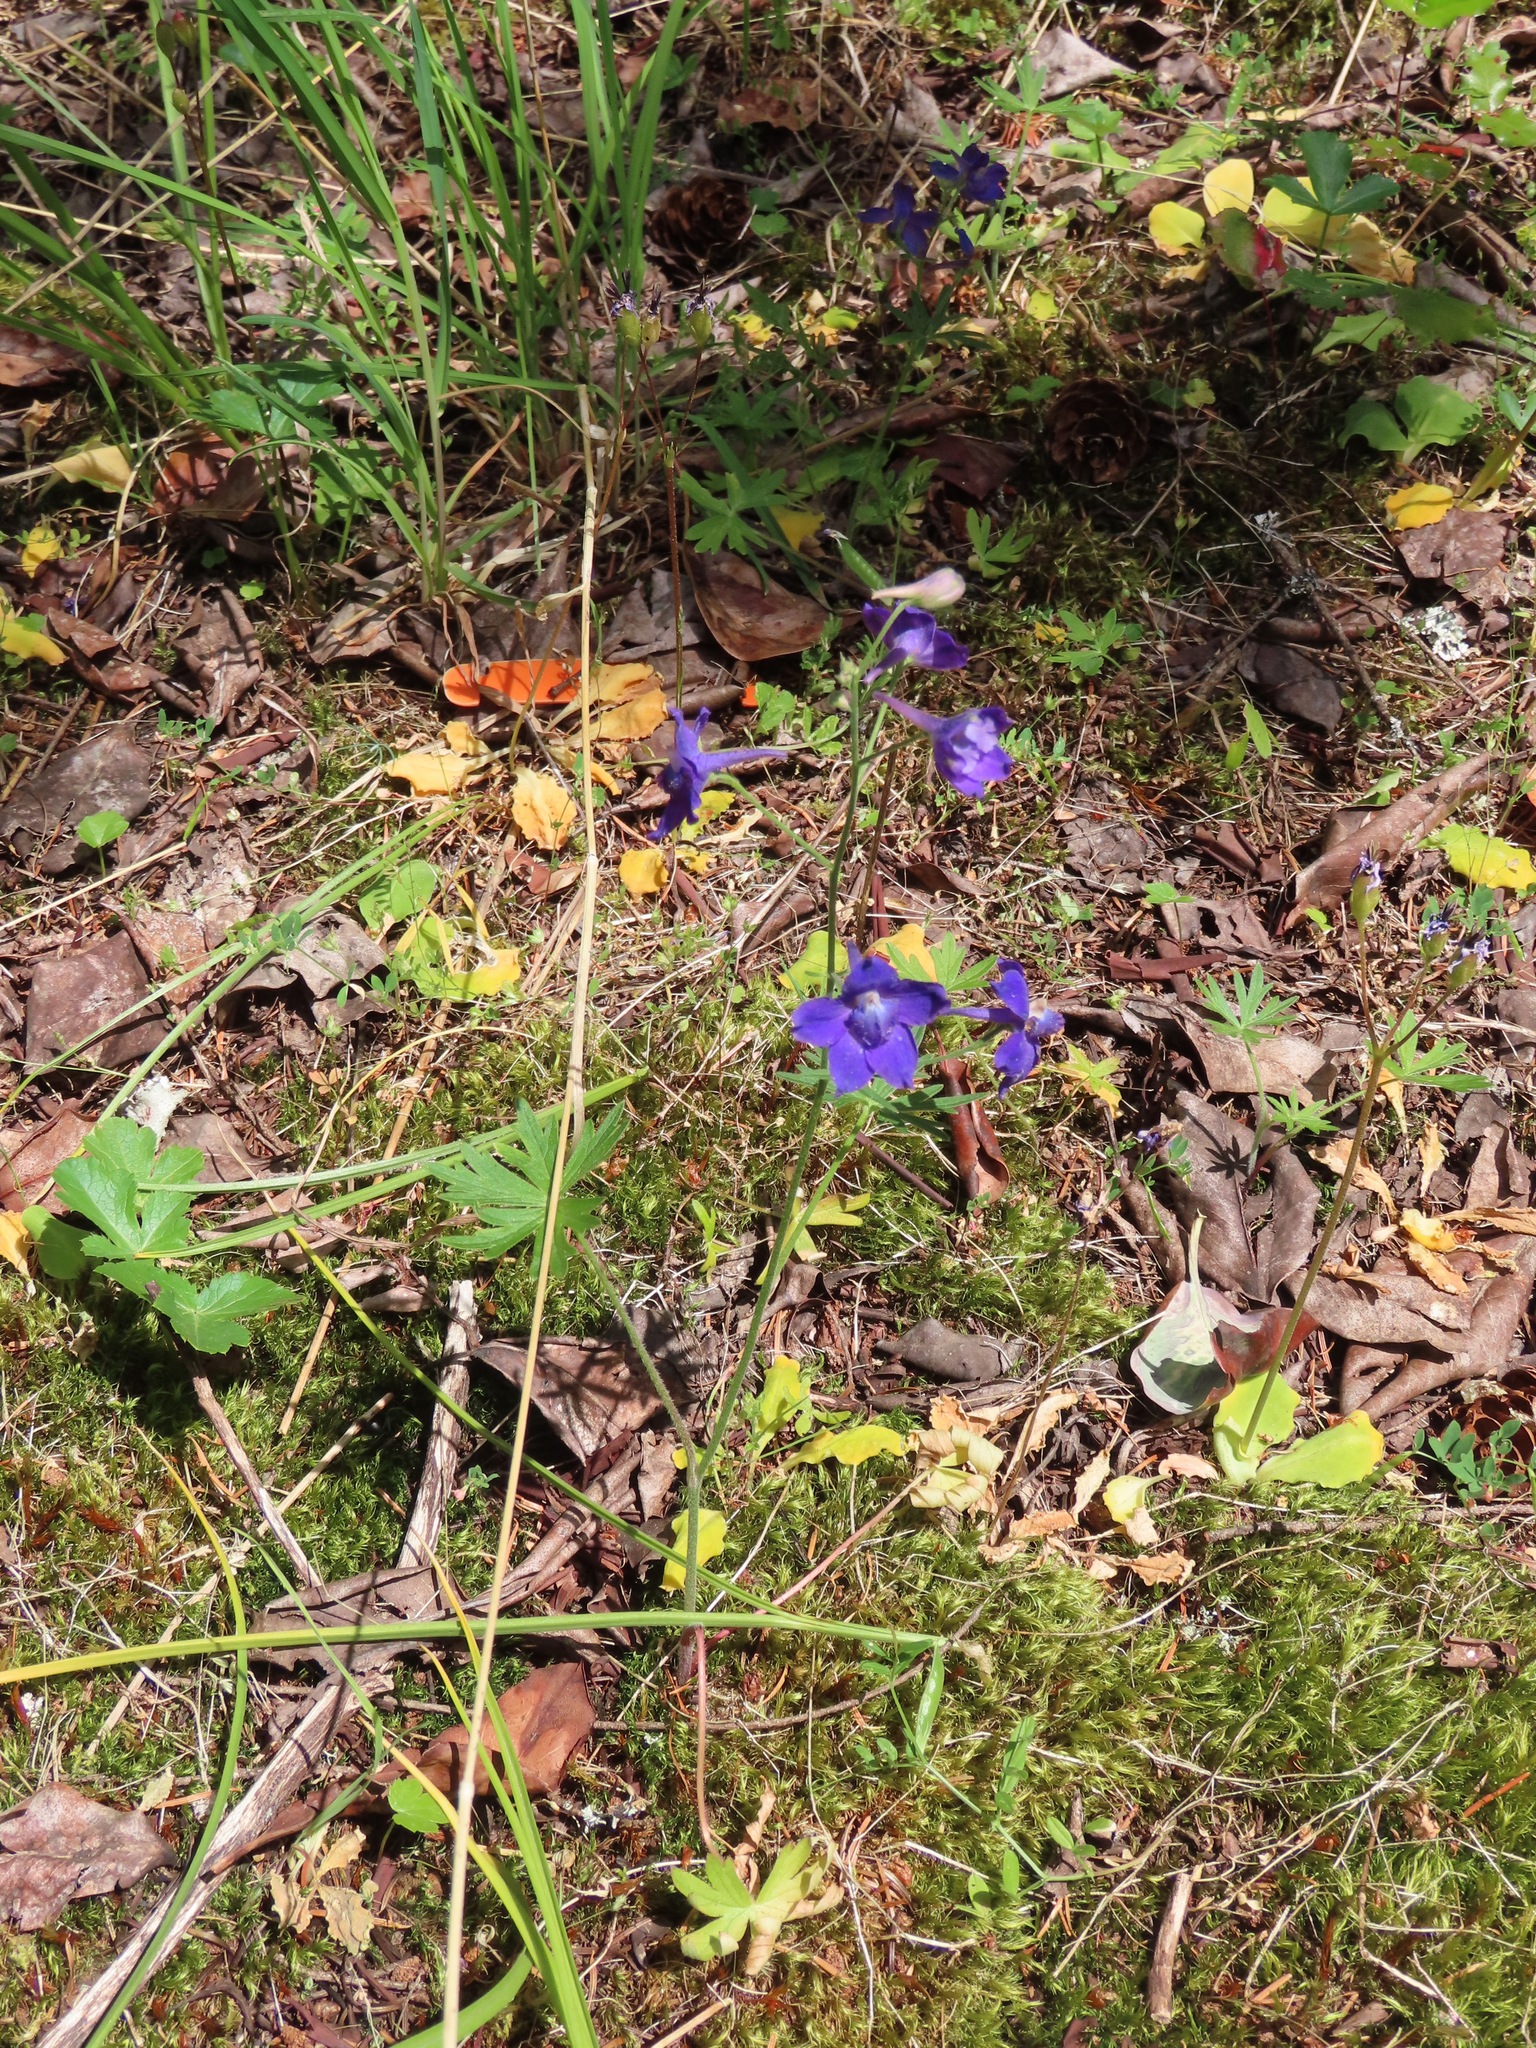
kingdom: Plantae
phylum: Tracheophyta
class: Magnoliopsida
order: Ranunculales
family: Ranunculaceae
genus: Delphinium
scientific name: Delphinium menziesii
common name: Menzies's larkspur
